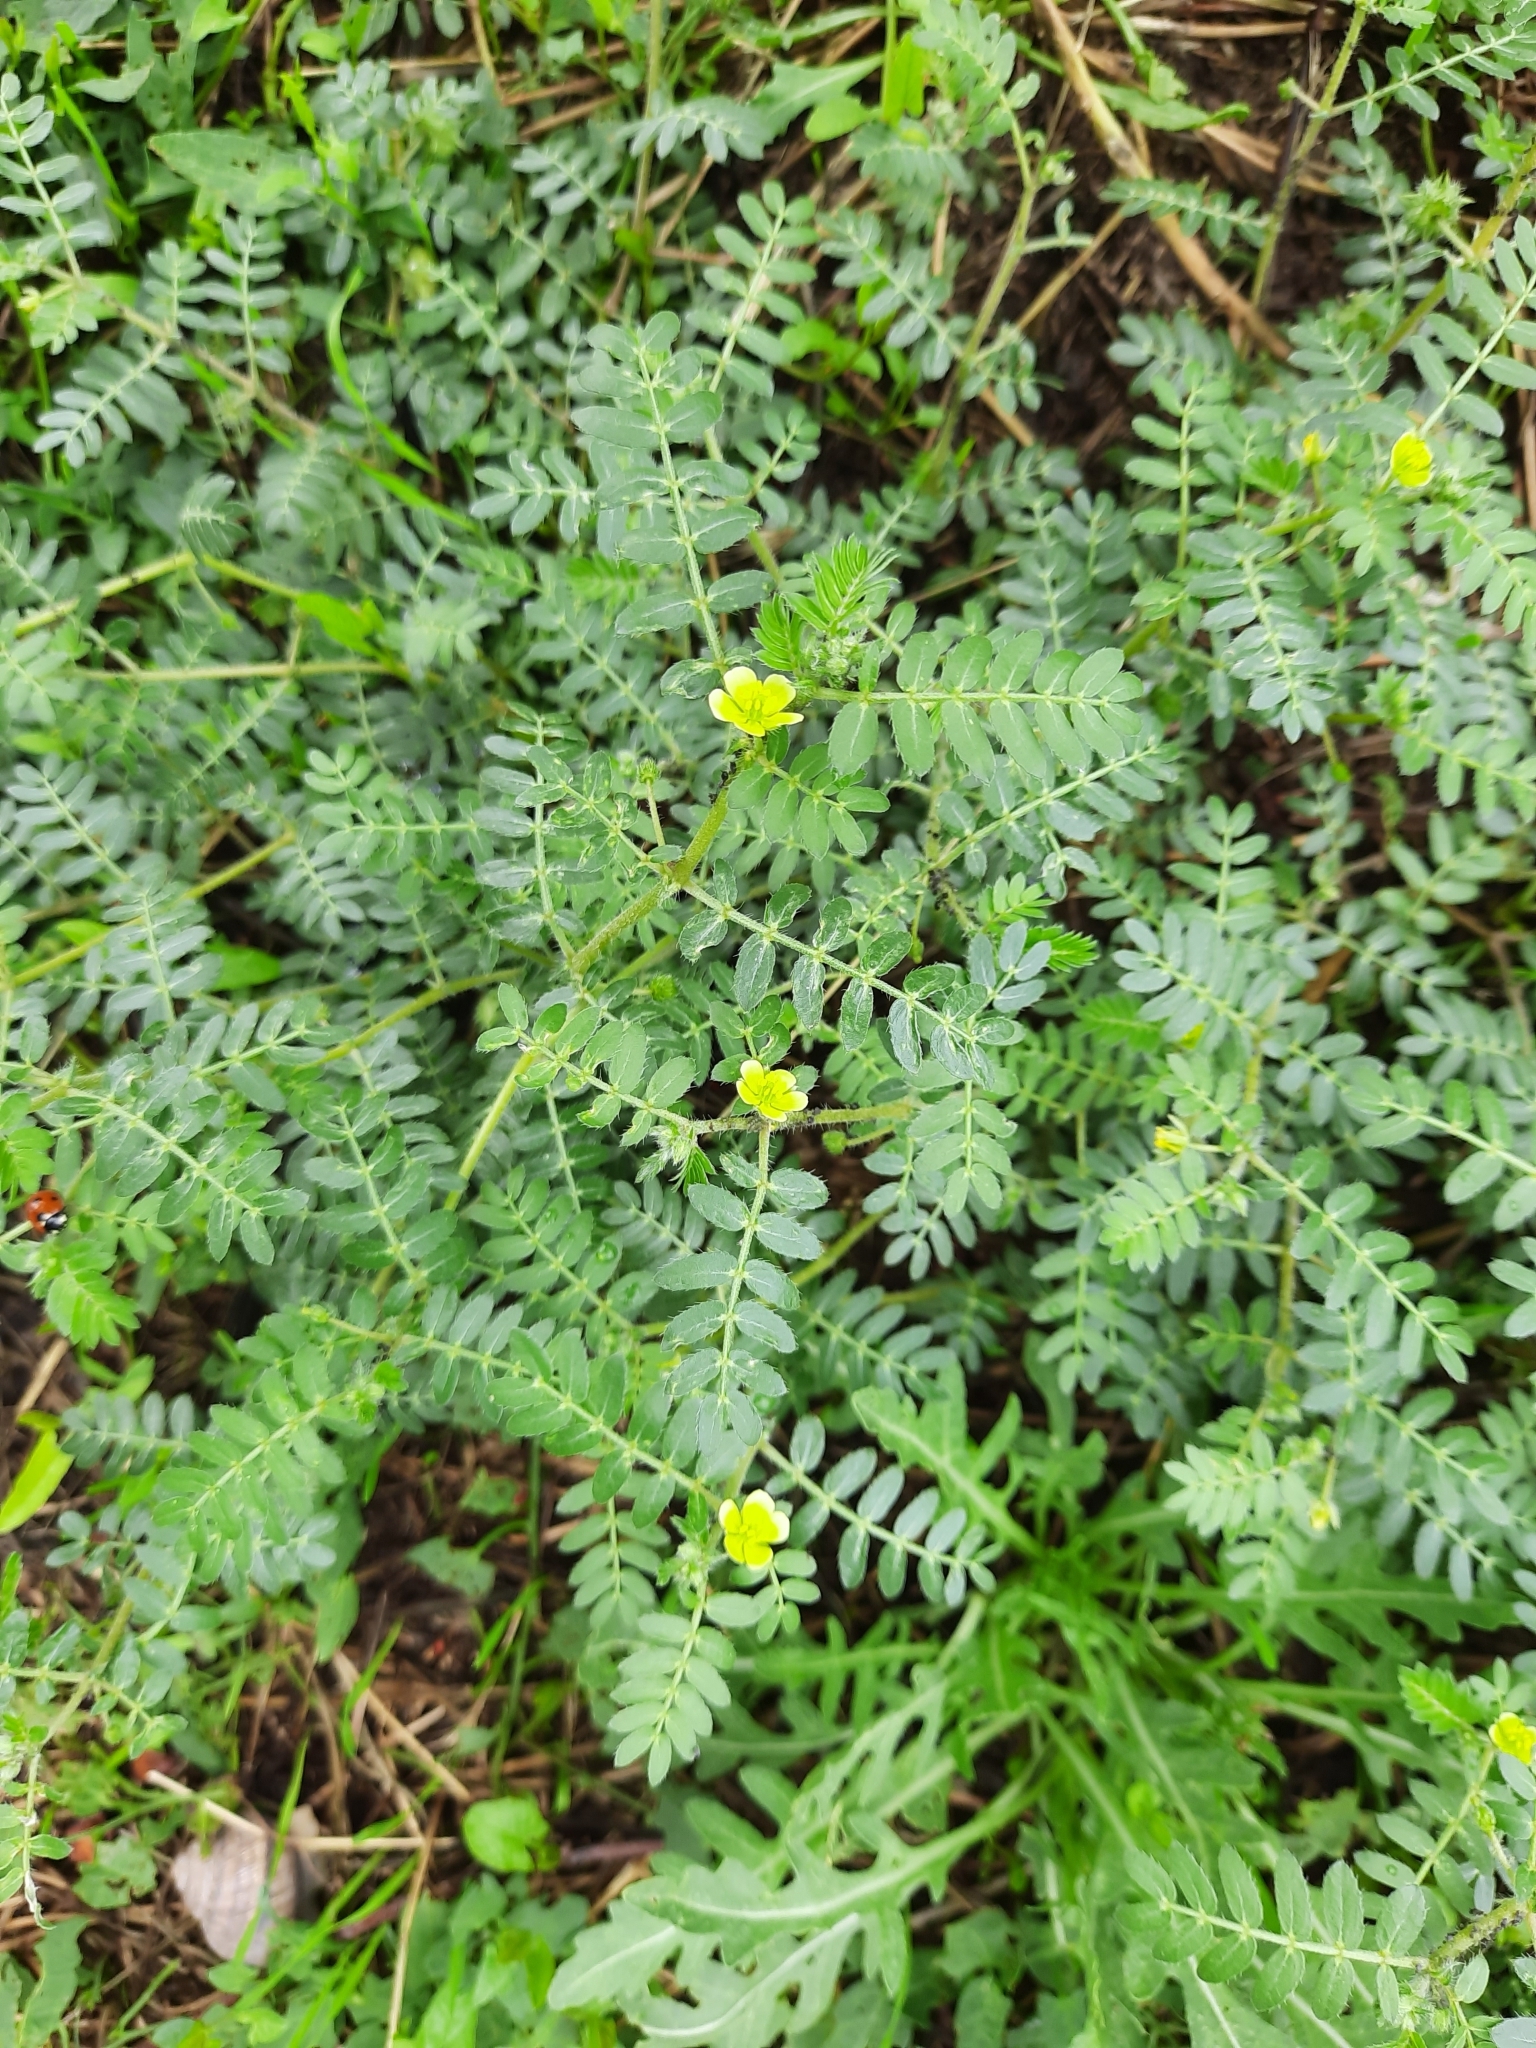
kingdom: Plantae
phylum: Tracheophyta
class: Magnoliopsida
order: Zygophyllales
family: Zygophyllaceae
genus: Tribulus
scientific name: Tribulus terrestris
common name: Puncturevine
